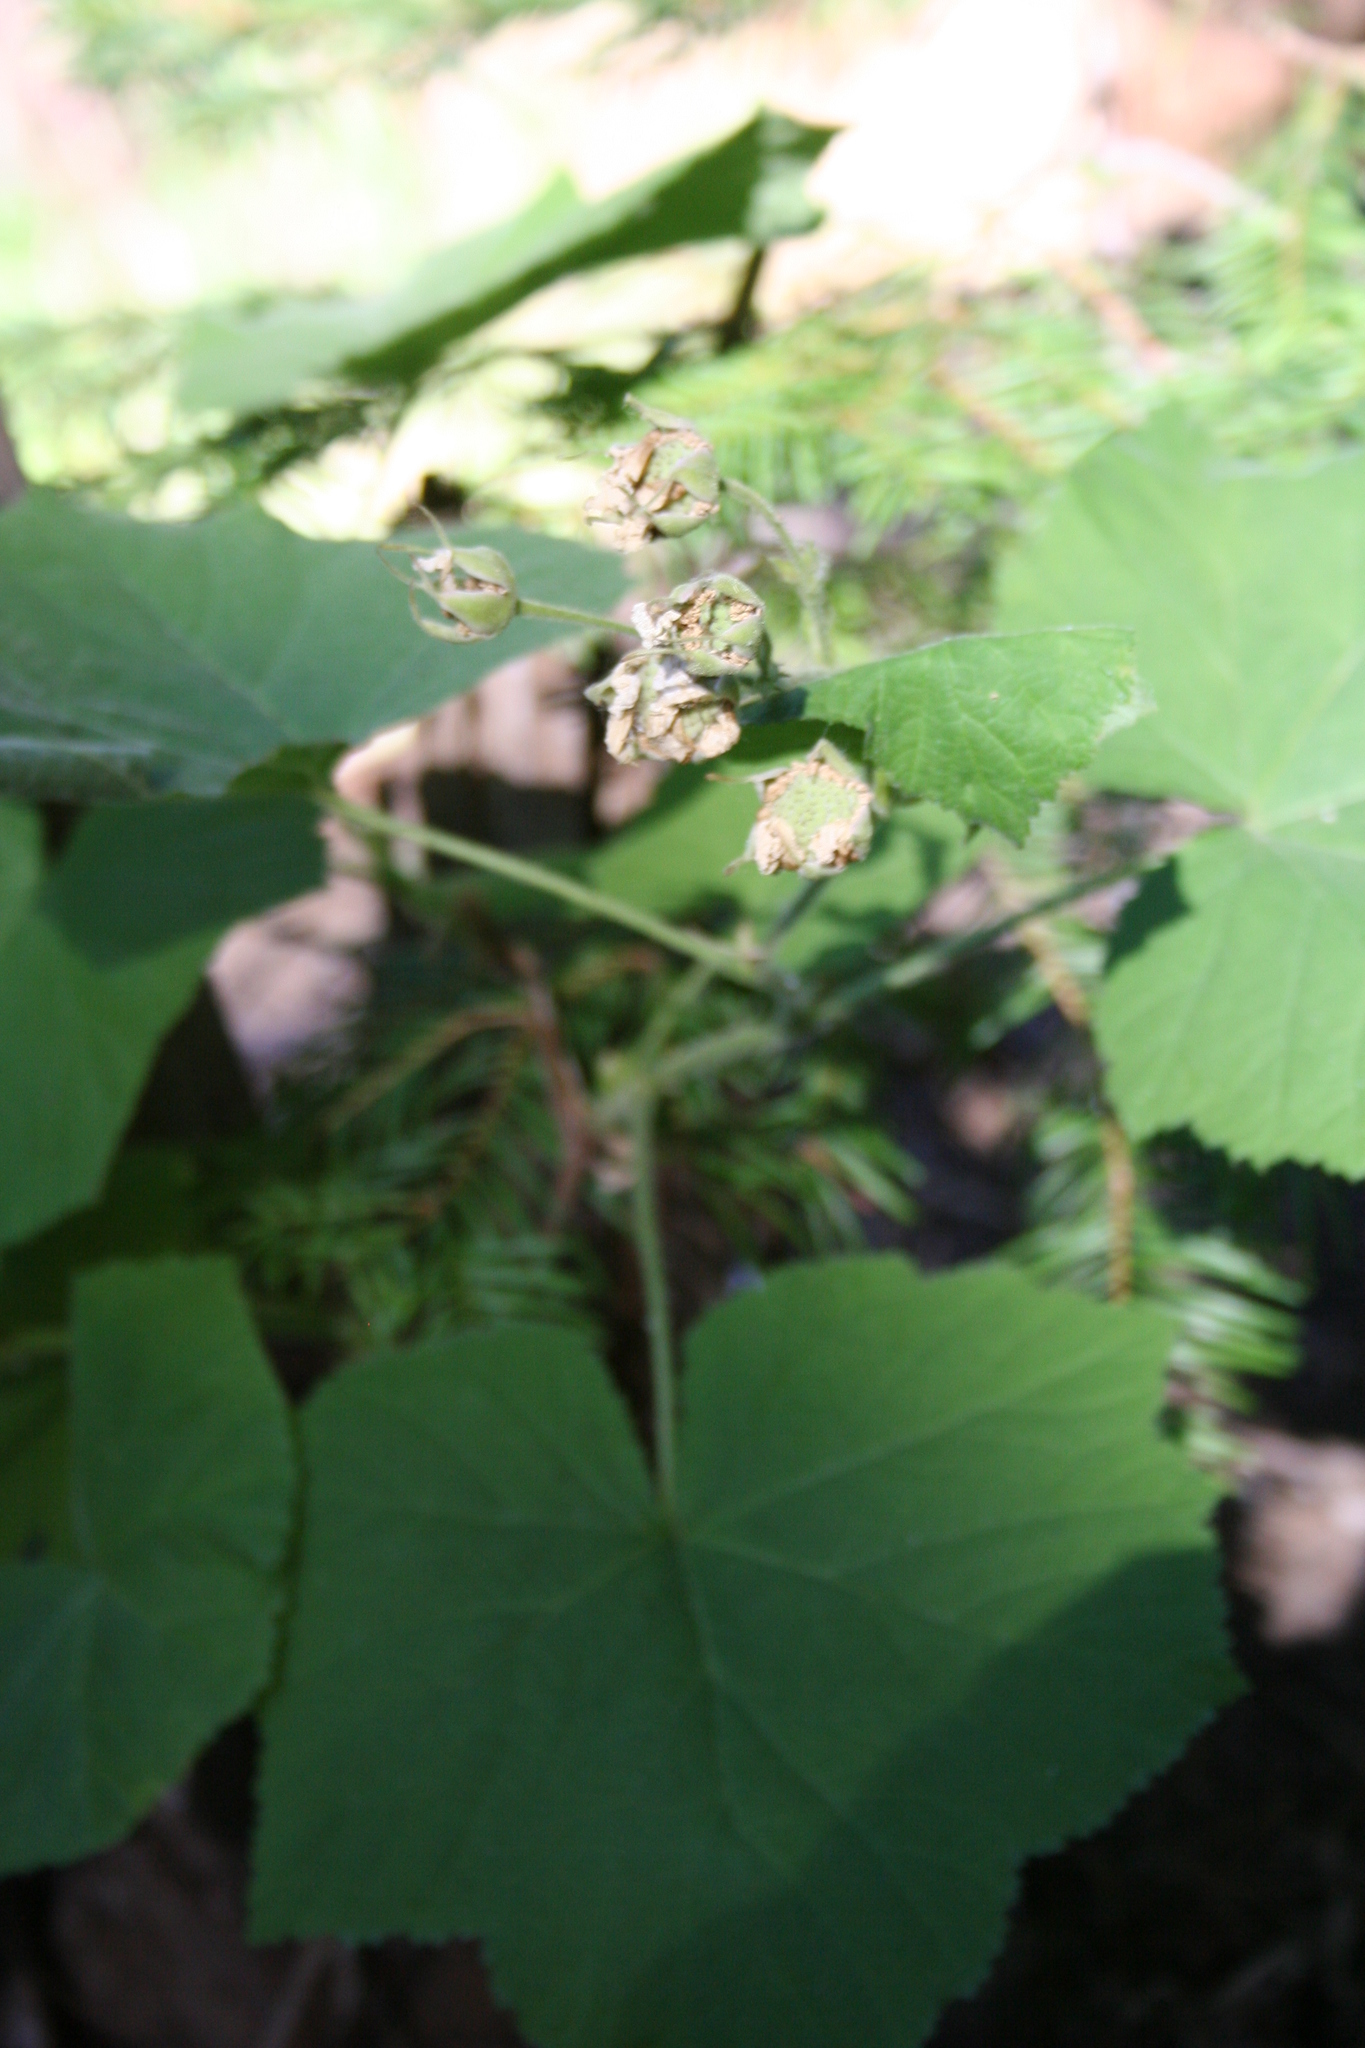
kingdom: Plantae
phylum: Tracheophyta
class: Magnoliopsida
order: Rosales
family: Rosaceae
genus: Rubus
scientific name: Rubus parviflorus
